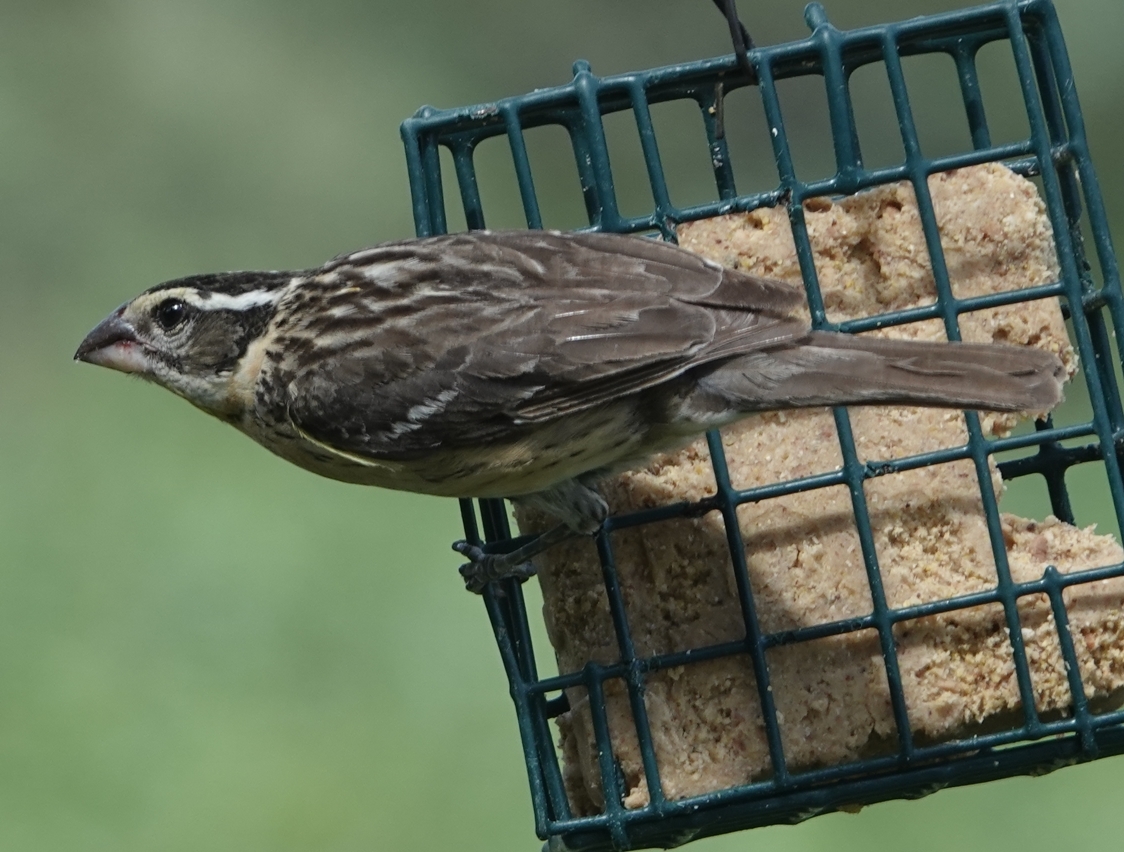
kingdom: Animalia
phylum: Chordata
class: Aves
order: Passeriformes
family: Cardinalidae
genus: Pheucticus
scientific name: Pheucticus melanocephalus
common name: Black-headed grosbeak
